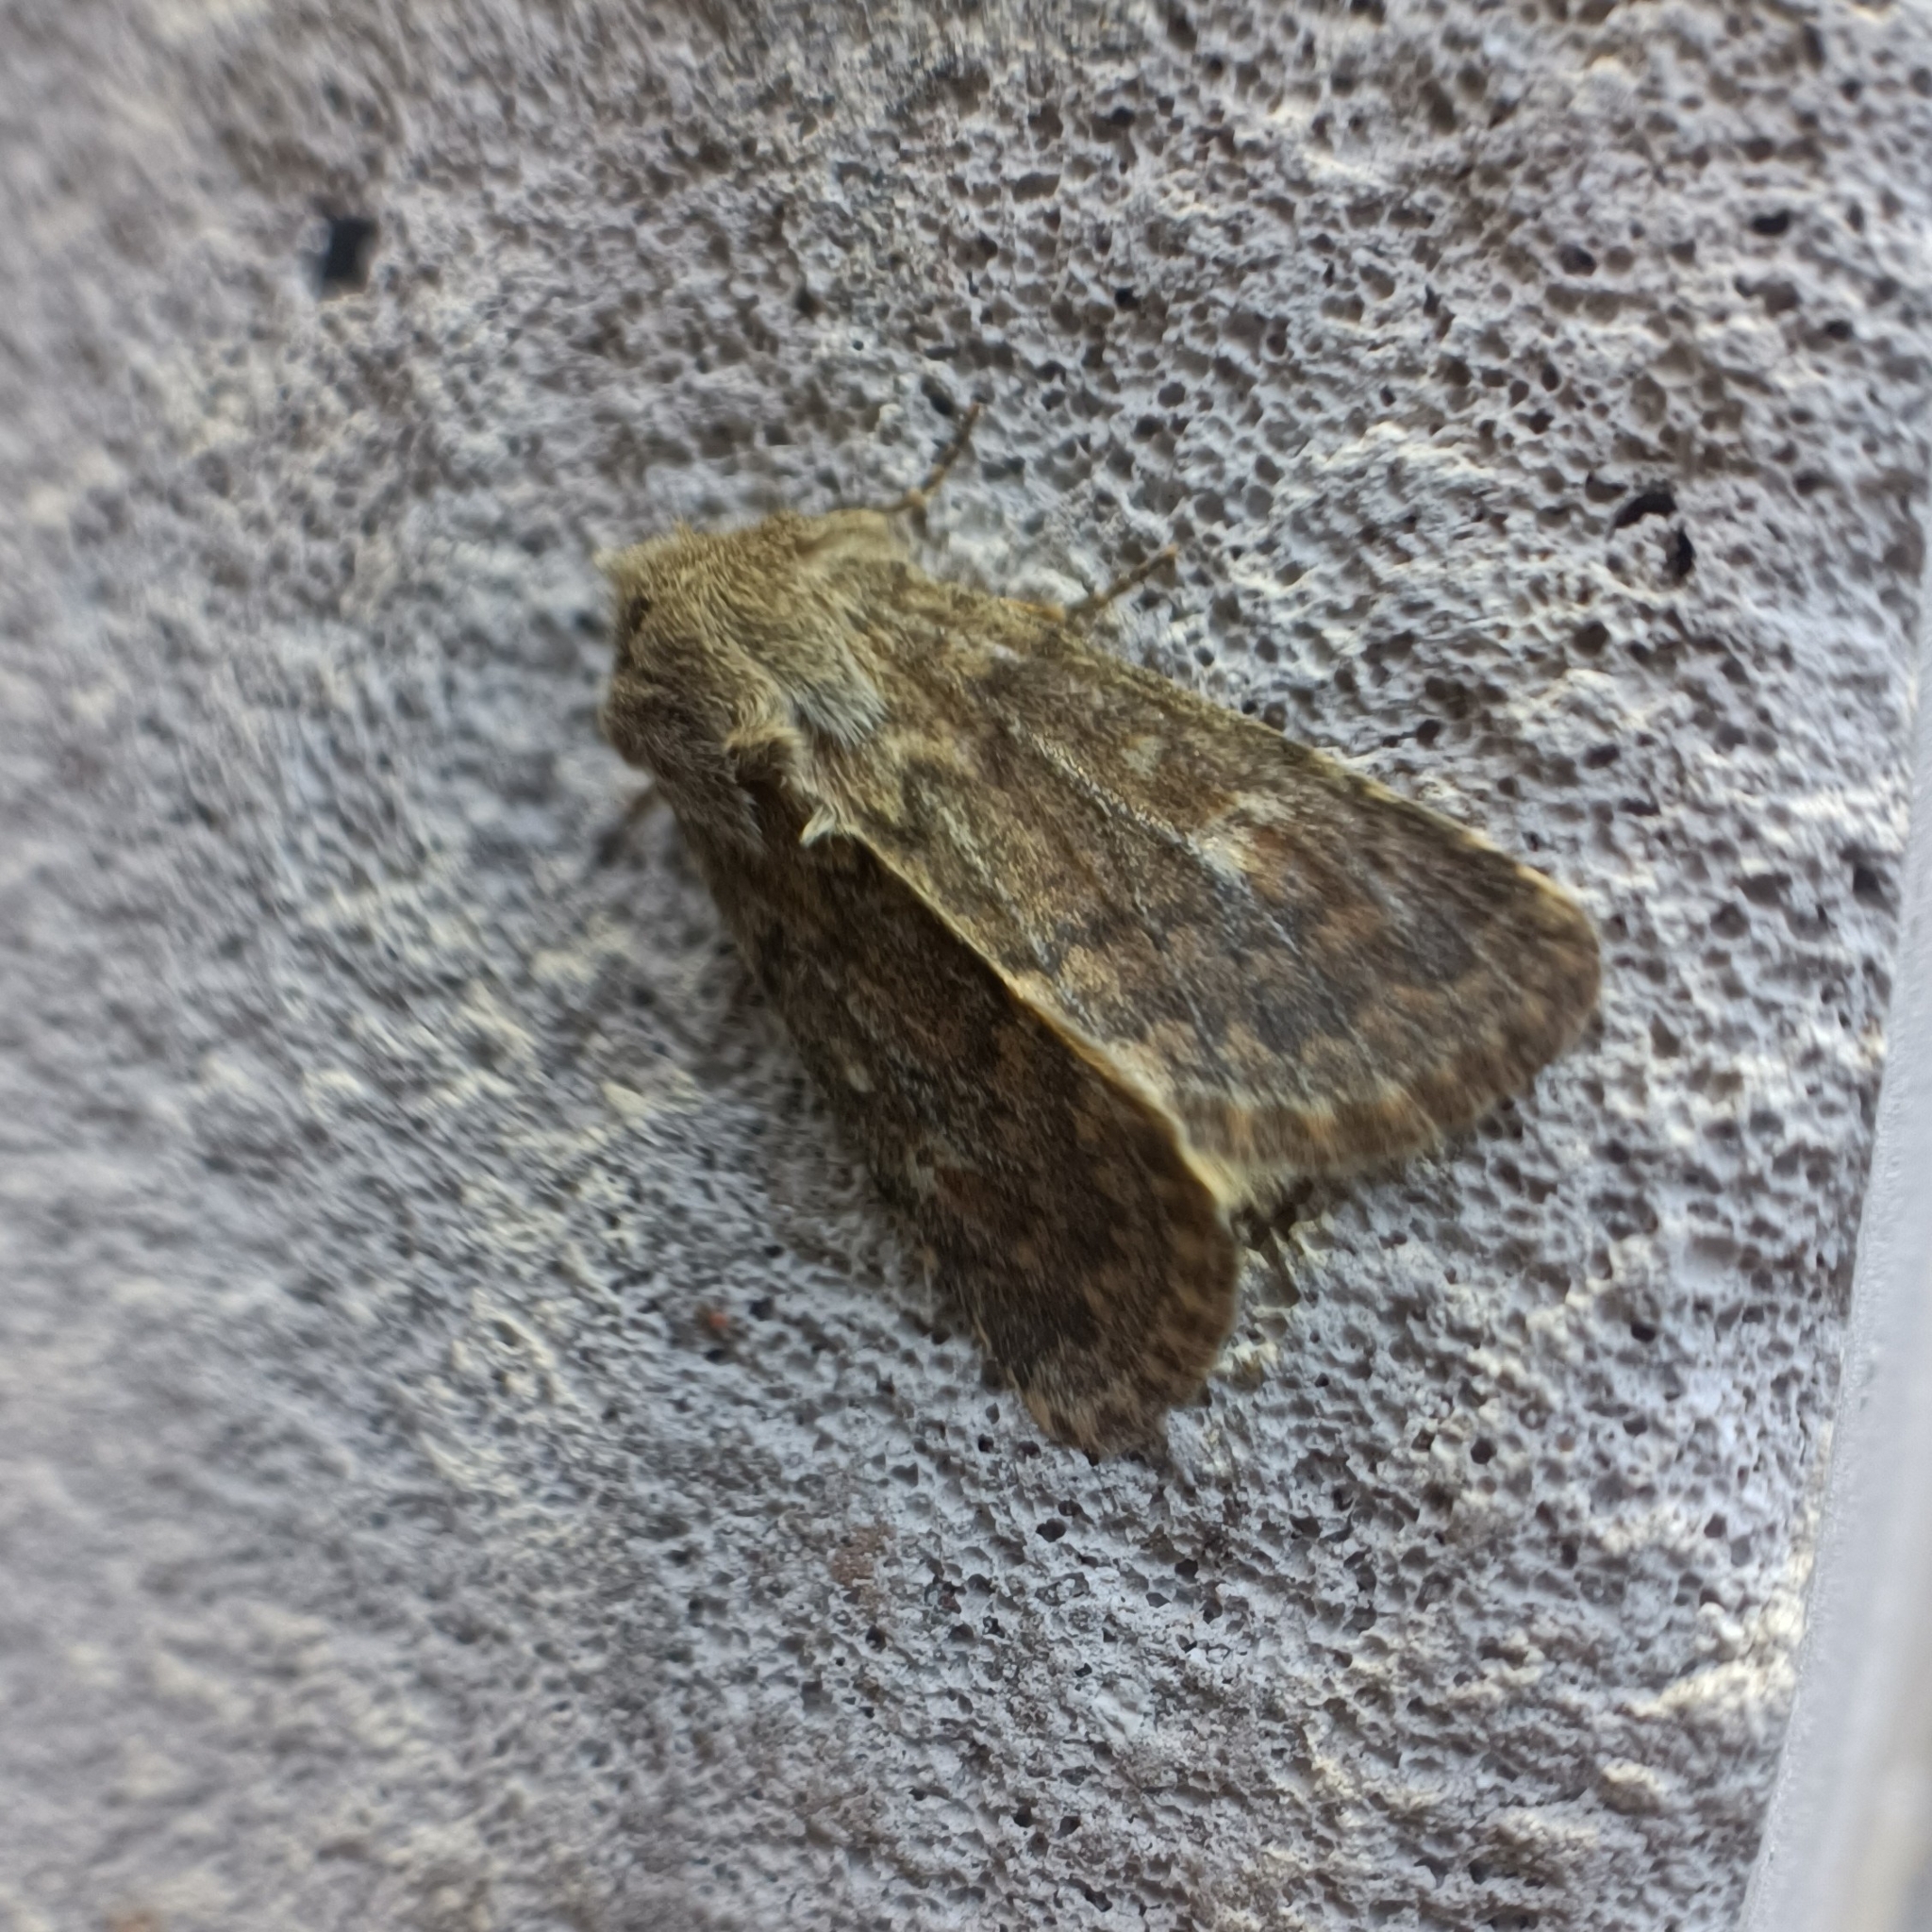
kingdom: Animalia
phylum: Arthropoda
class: Insecta
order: Lepidoptera
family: Noctuidae
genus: Dasypolia
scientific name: Dasypolia templi
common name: Brindled ochre
